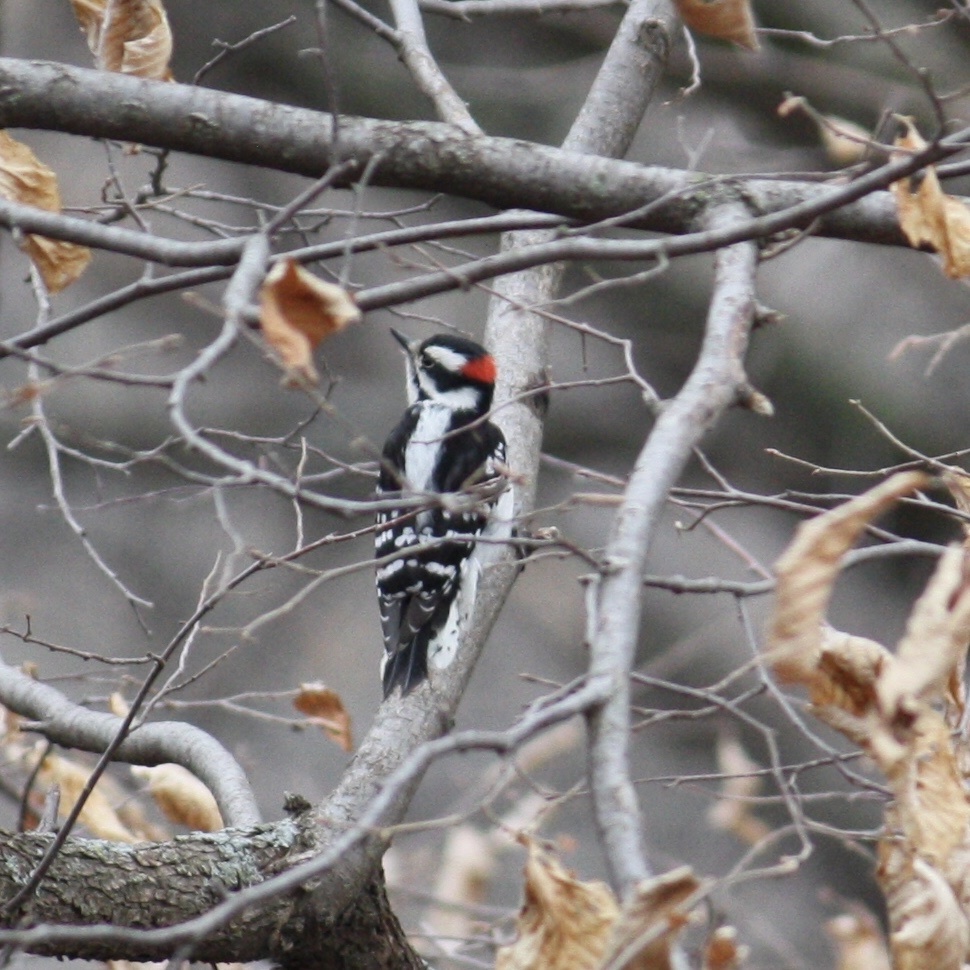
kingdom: Animalia
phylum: Chordata
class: Aves
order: Piciformes
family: Picidae
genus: Leuconotopicus
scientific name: Leuconotopicus villosus
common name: Hairy woodpecker
